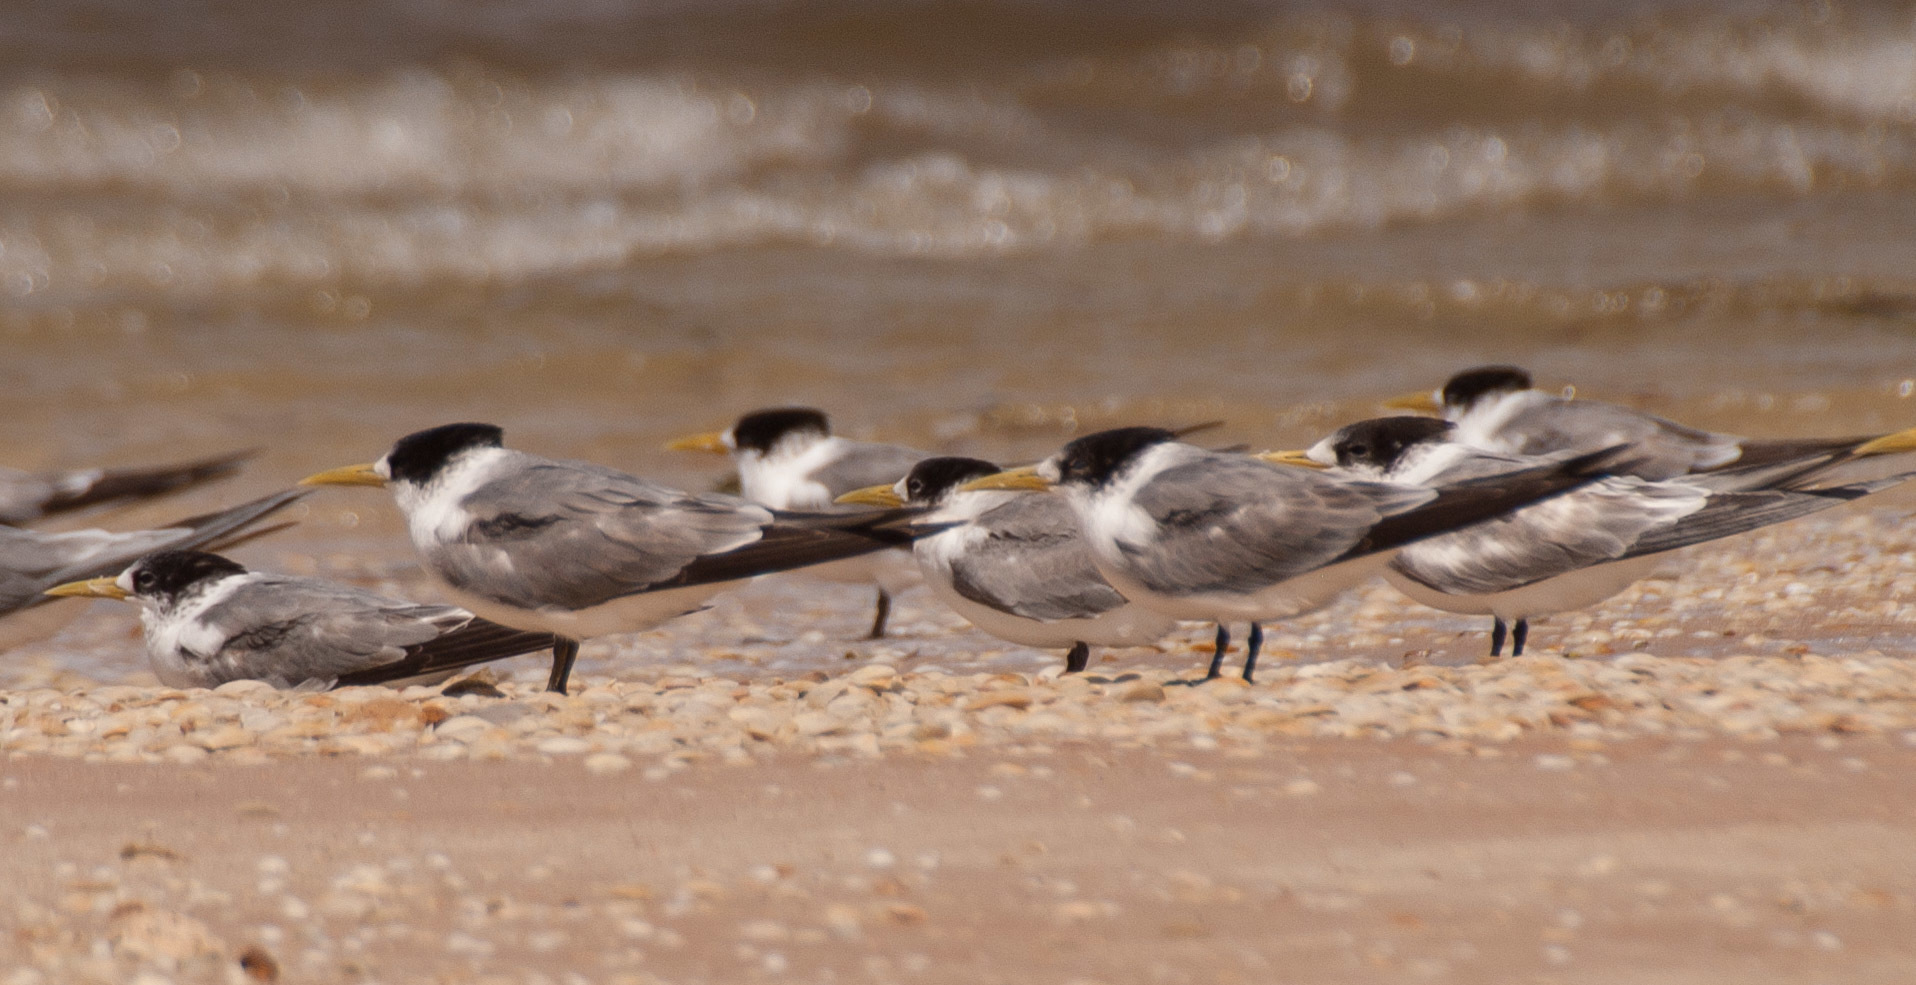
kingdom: Animalia
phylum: Chordata
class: Aves
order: Charadriiformes
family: Laridae
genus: Thalasseus
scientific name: Thalasseus bergii
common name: Greater crested tern
